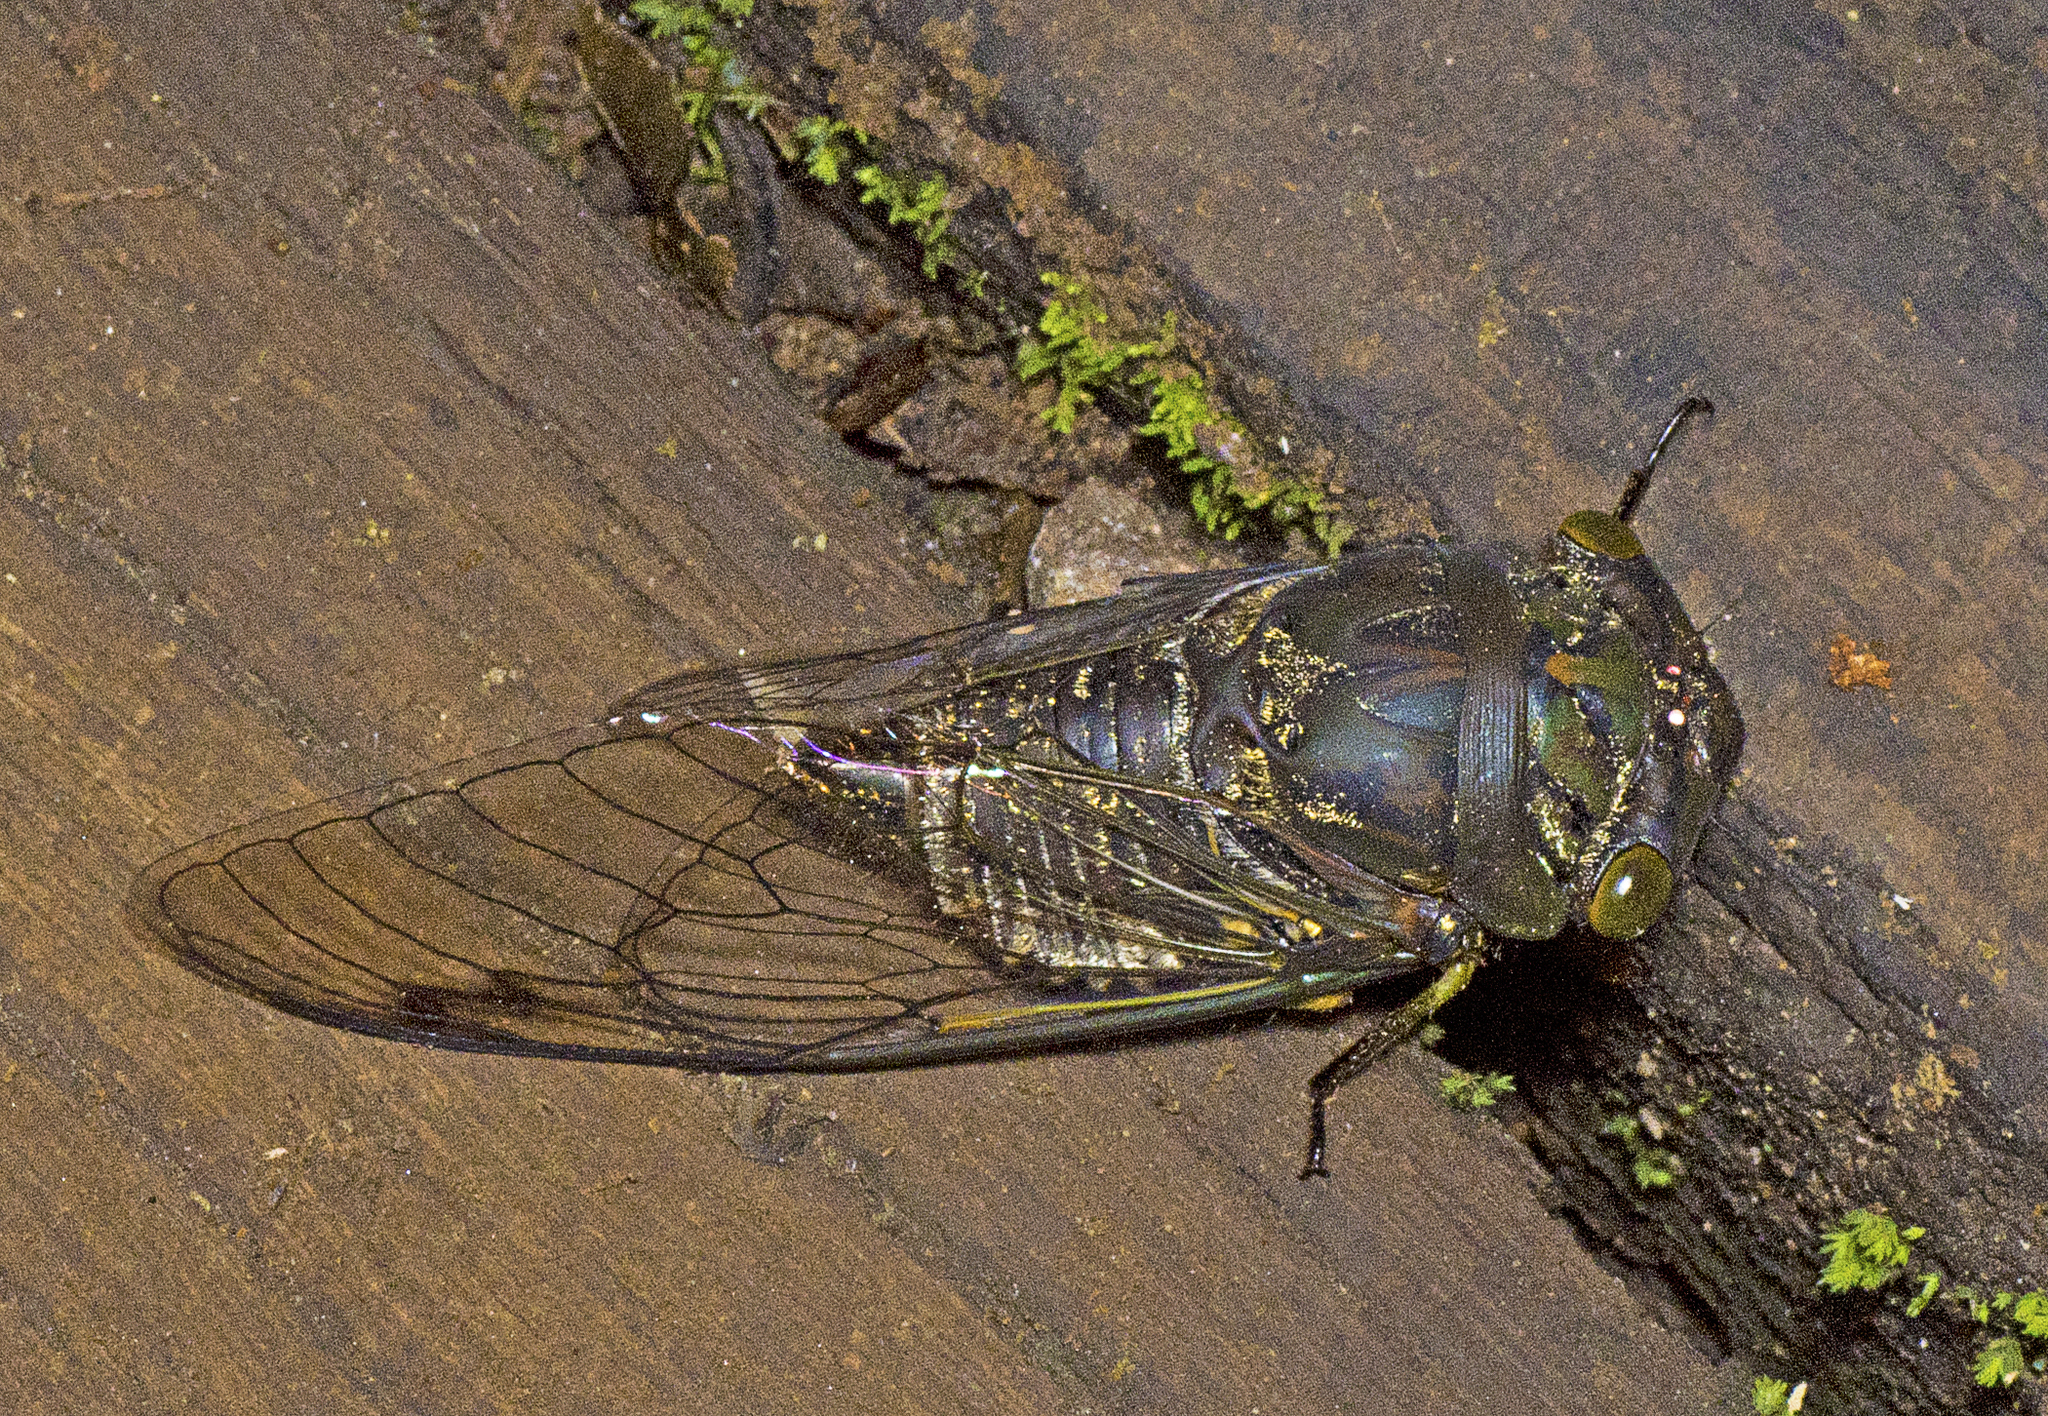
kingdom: Animalia
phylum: Arthropoda
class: Insecta
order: Hemiptera
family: Cicadidae
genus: Psaltoda
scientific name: Psaltoda plaga
